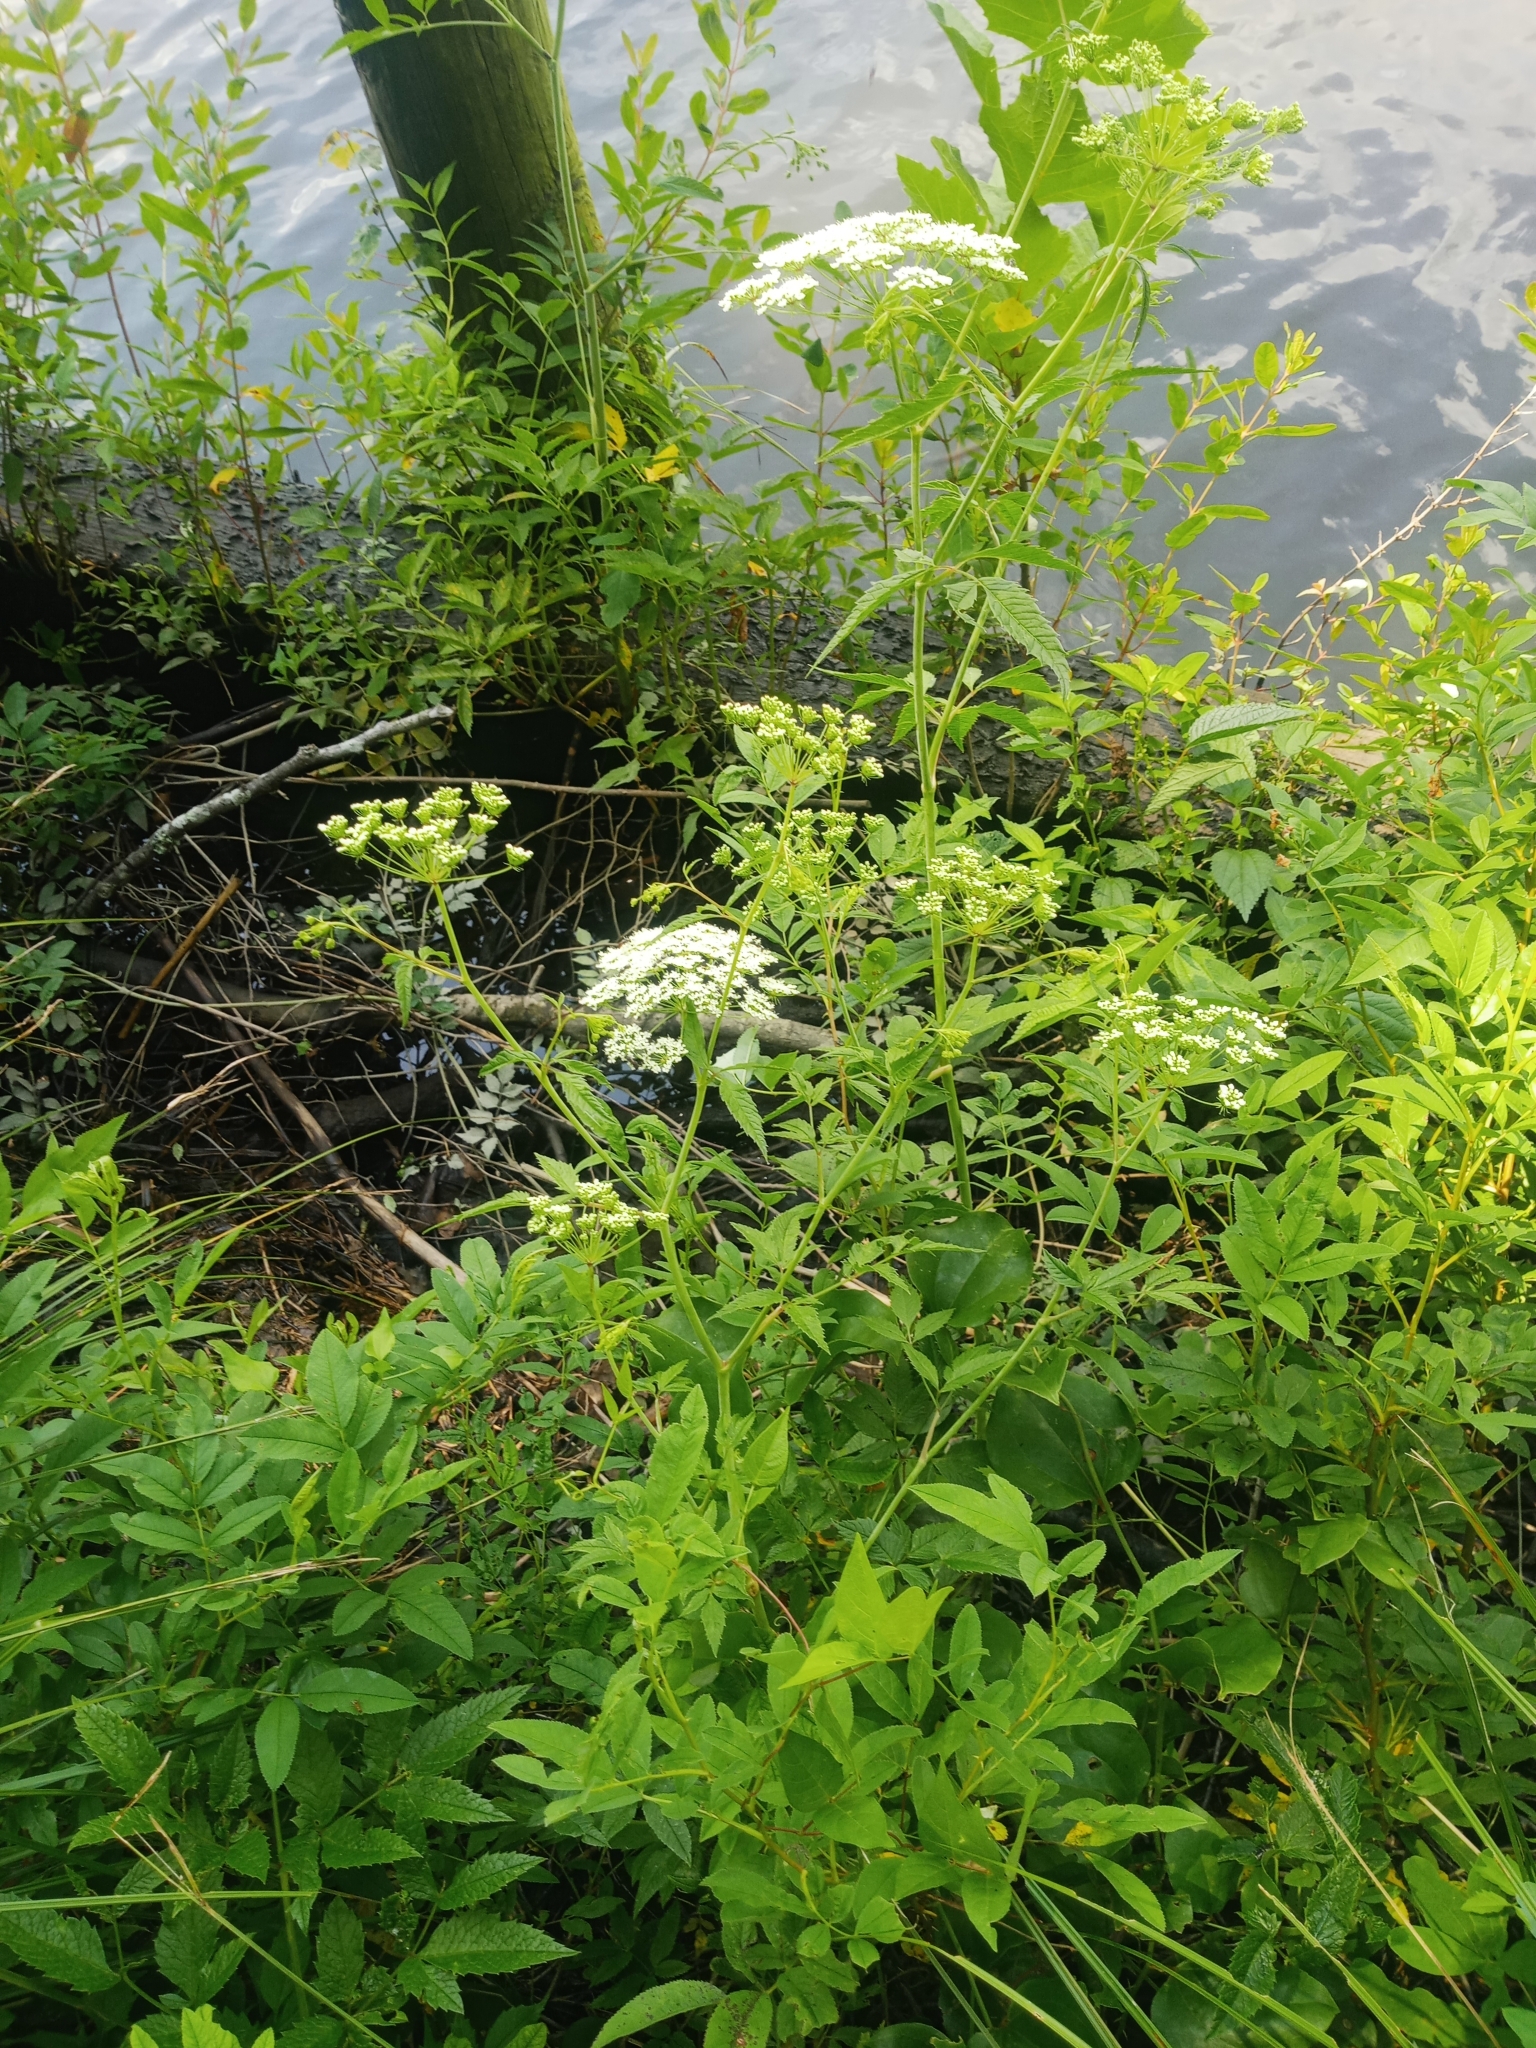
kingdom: Plantae
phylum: Tracheophyta
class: Magnoliopsida
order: Apiales
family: Apiaceae
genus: Cicuta
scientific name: Cicuta maculata
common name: Spotted cowbane
